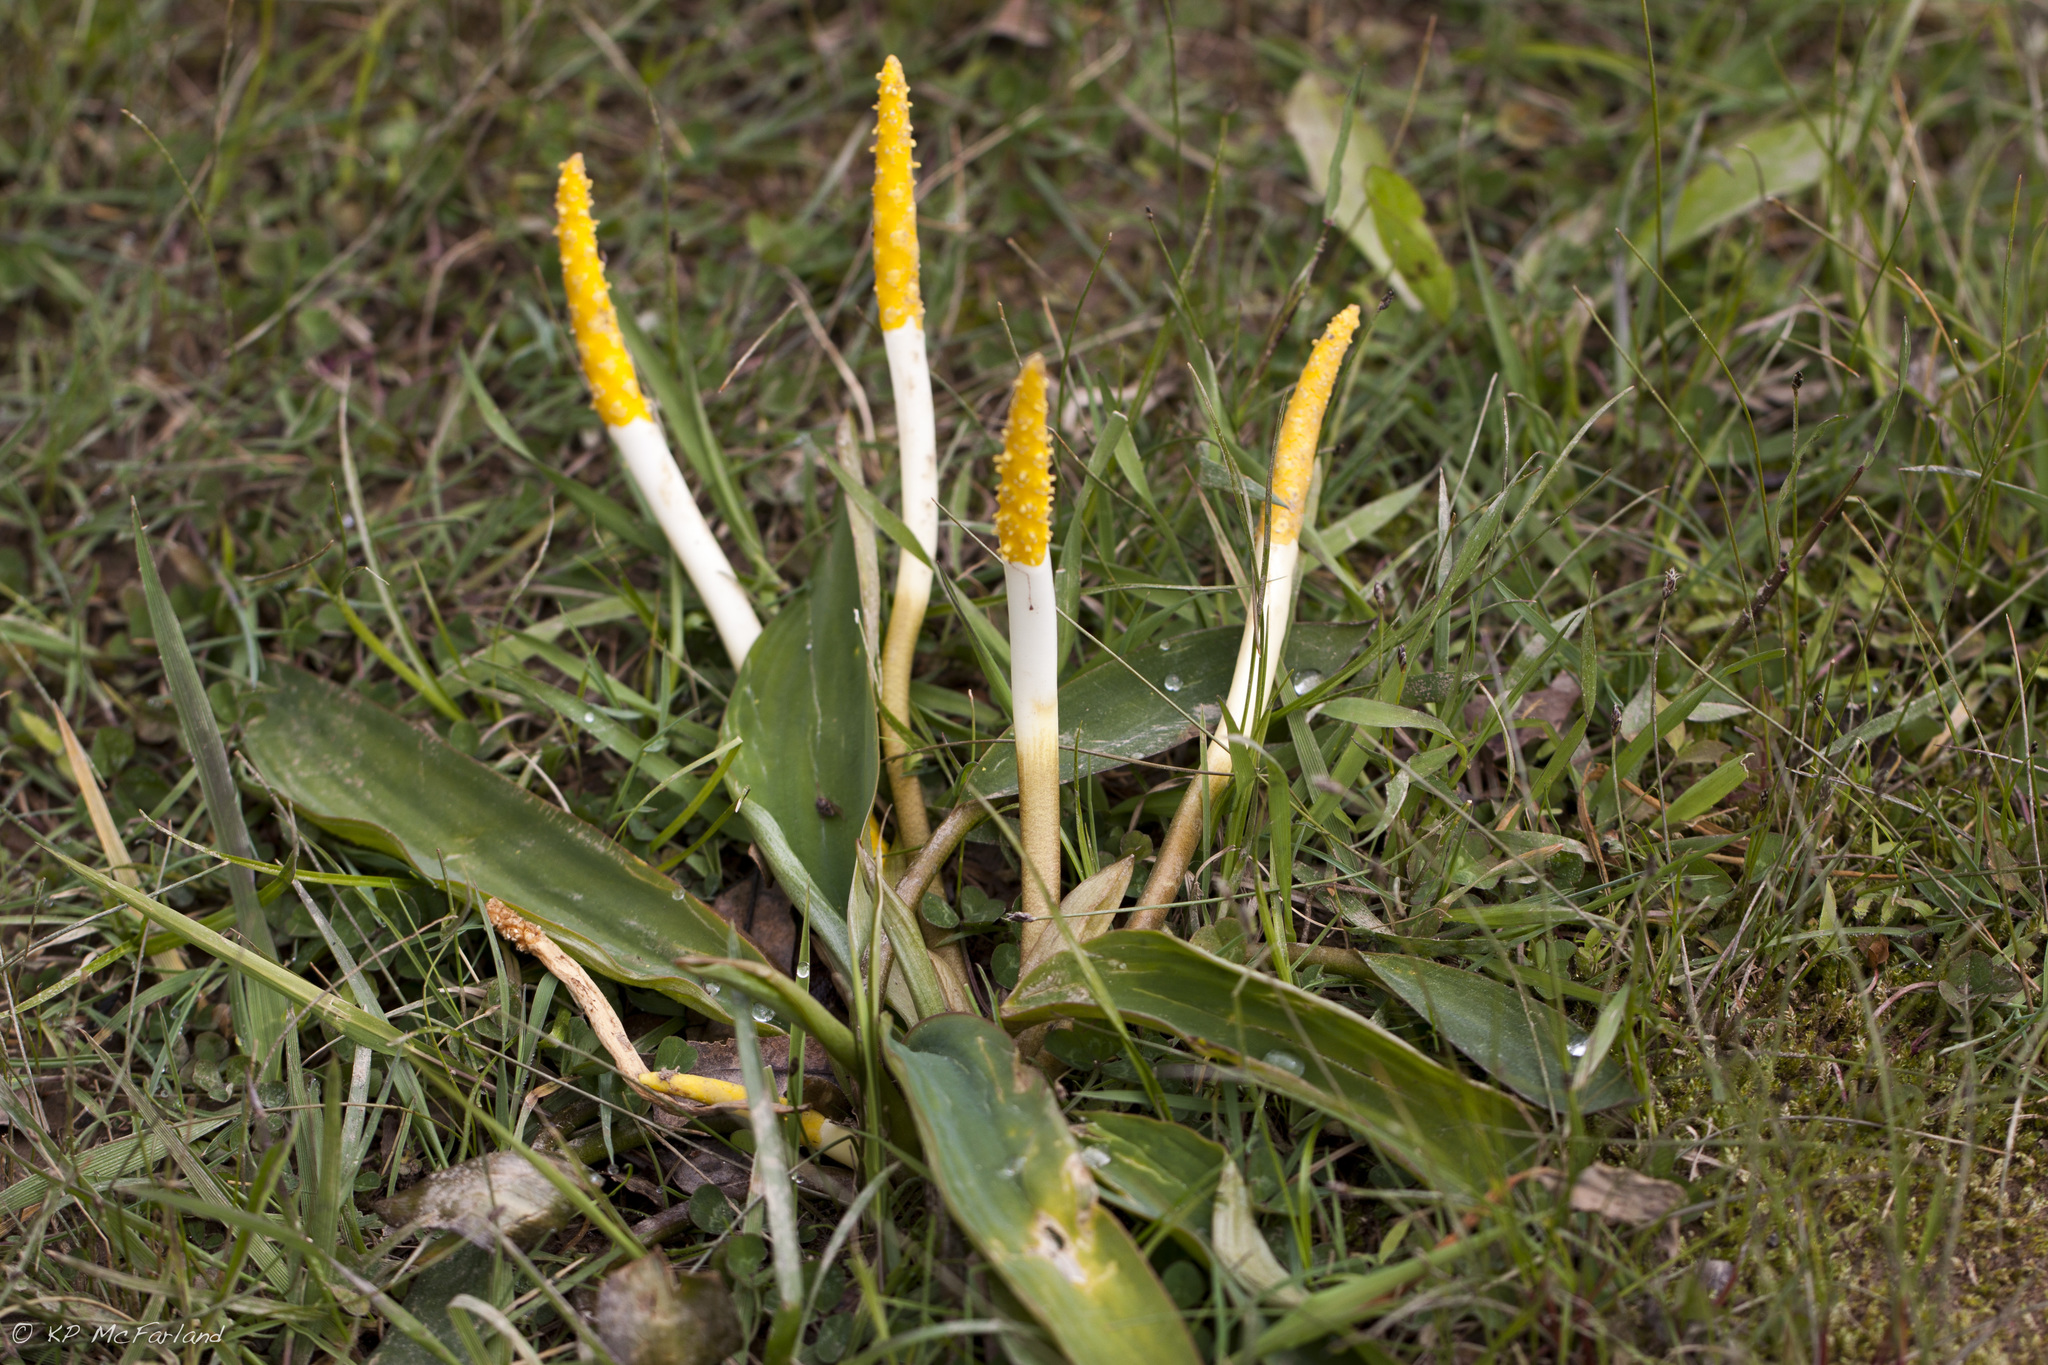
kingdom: Plantae
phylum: Tracheophyta
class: Liliopsida
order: Alismatales
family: Araceae
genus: Orontium
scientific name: Orontium aquaticum
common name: Golden-club
